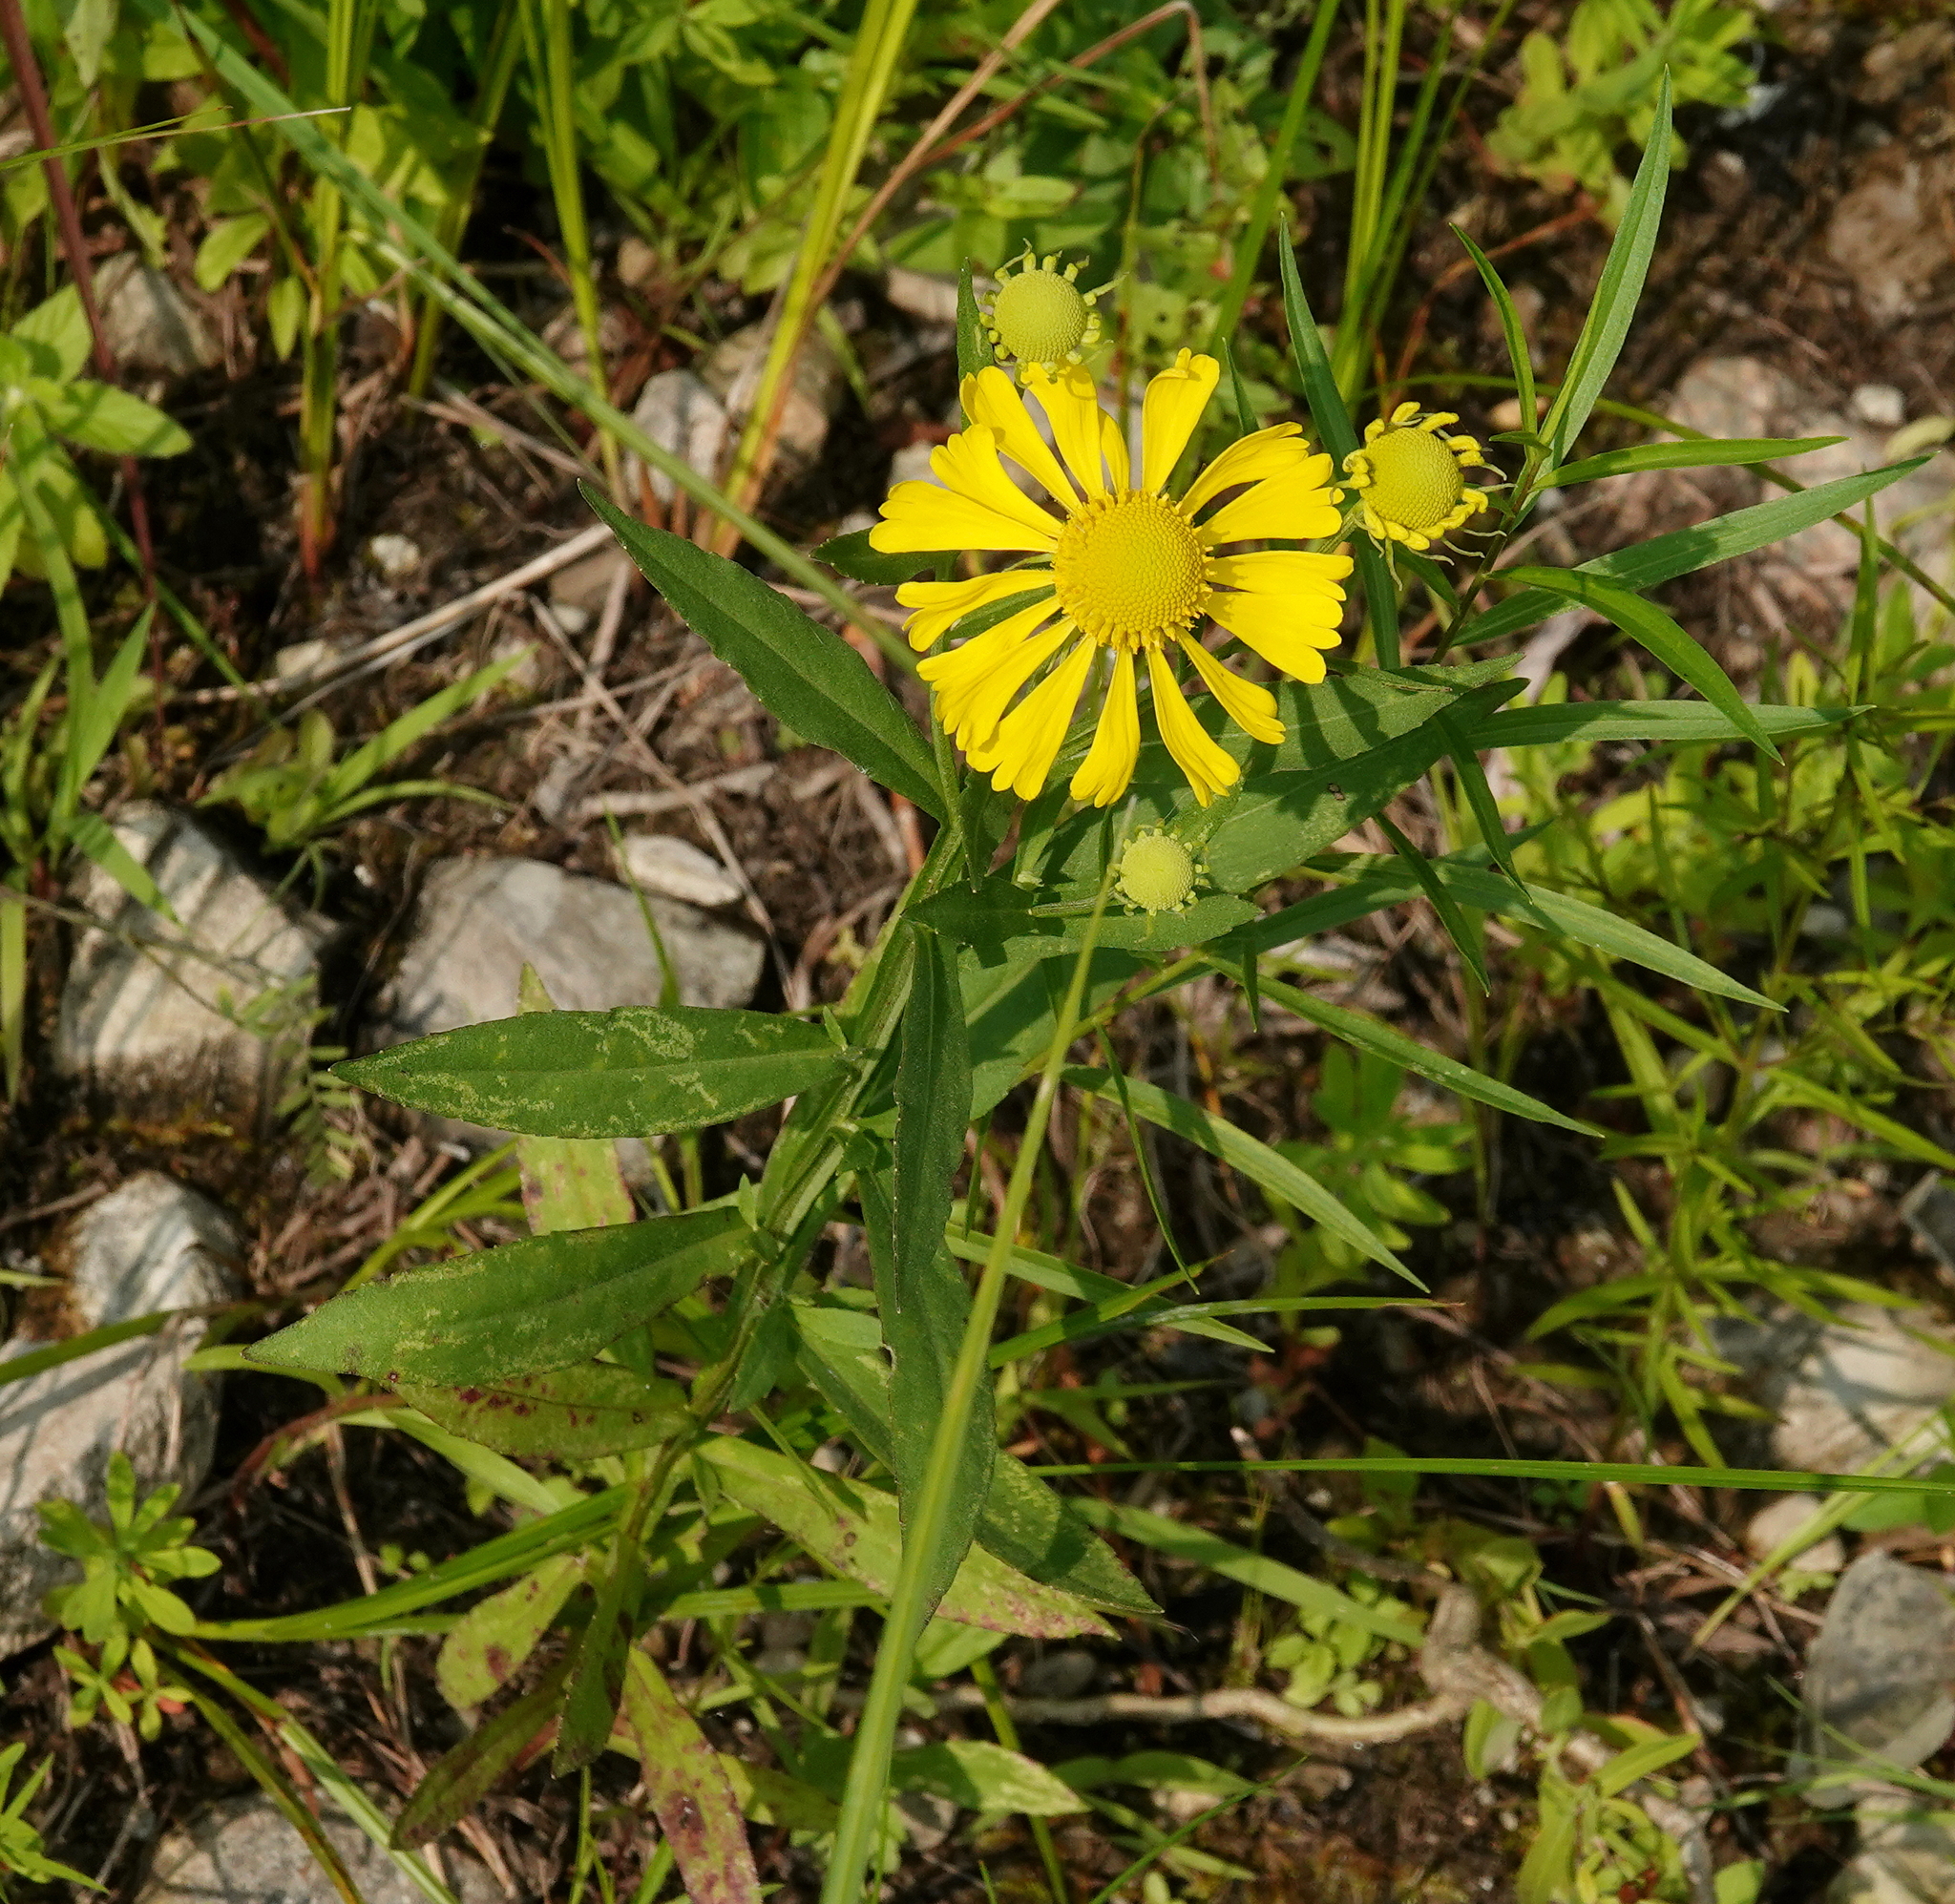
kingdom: Plantae
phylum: Tracheophyta
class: Magnoliopsida
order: Asterales
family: Asteraceae
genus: Helenium
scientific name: Helenium autumnale
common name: Sneezeweed
